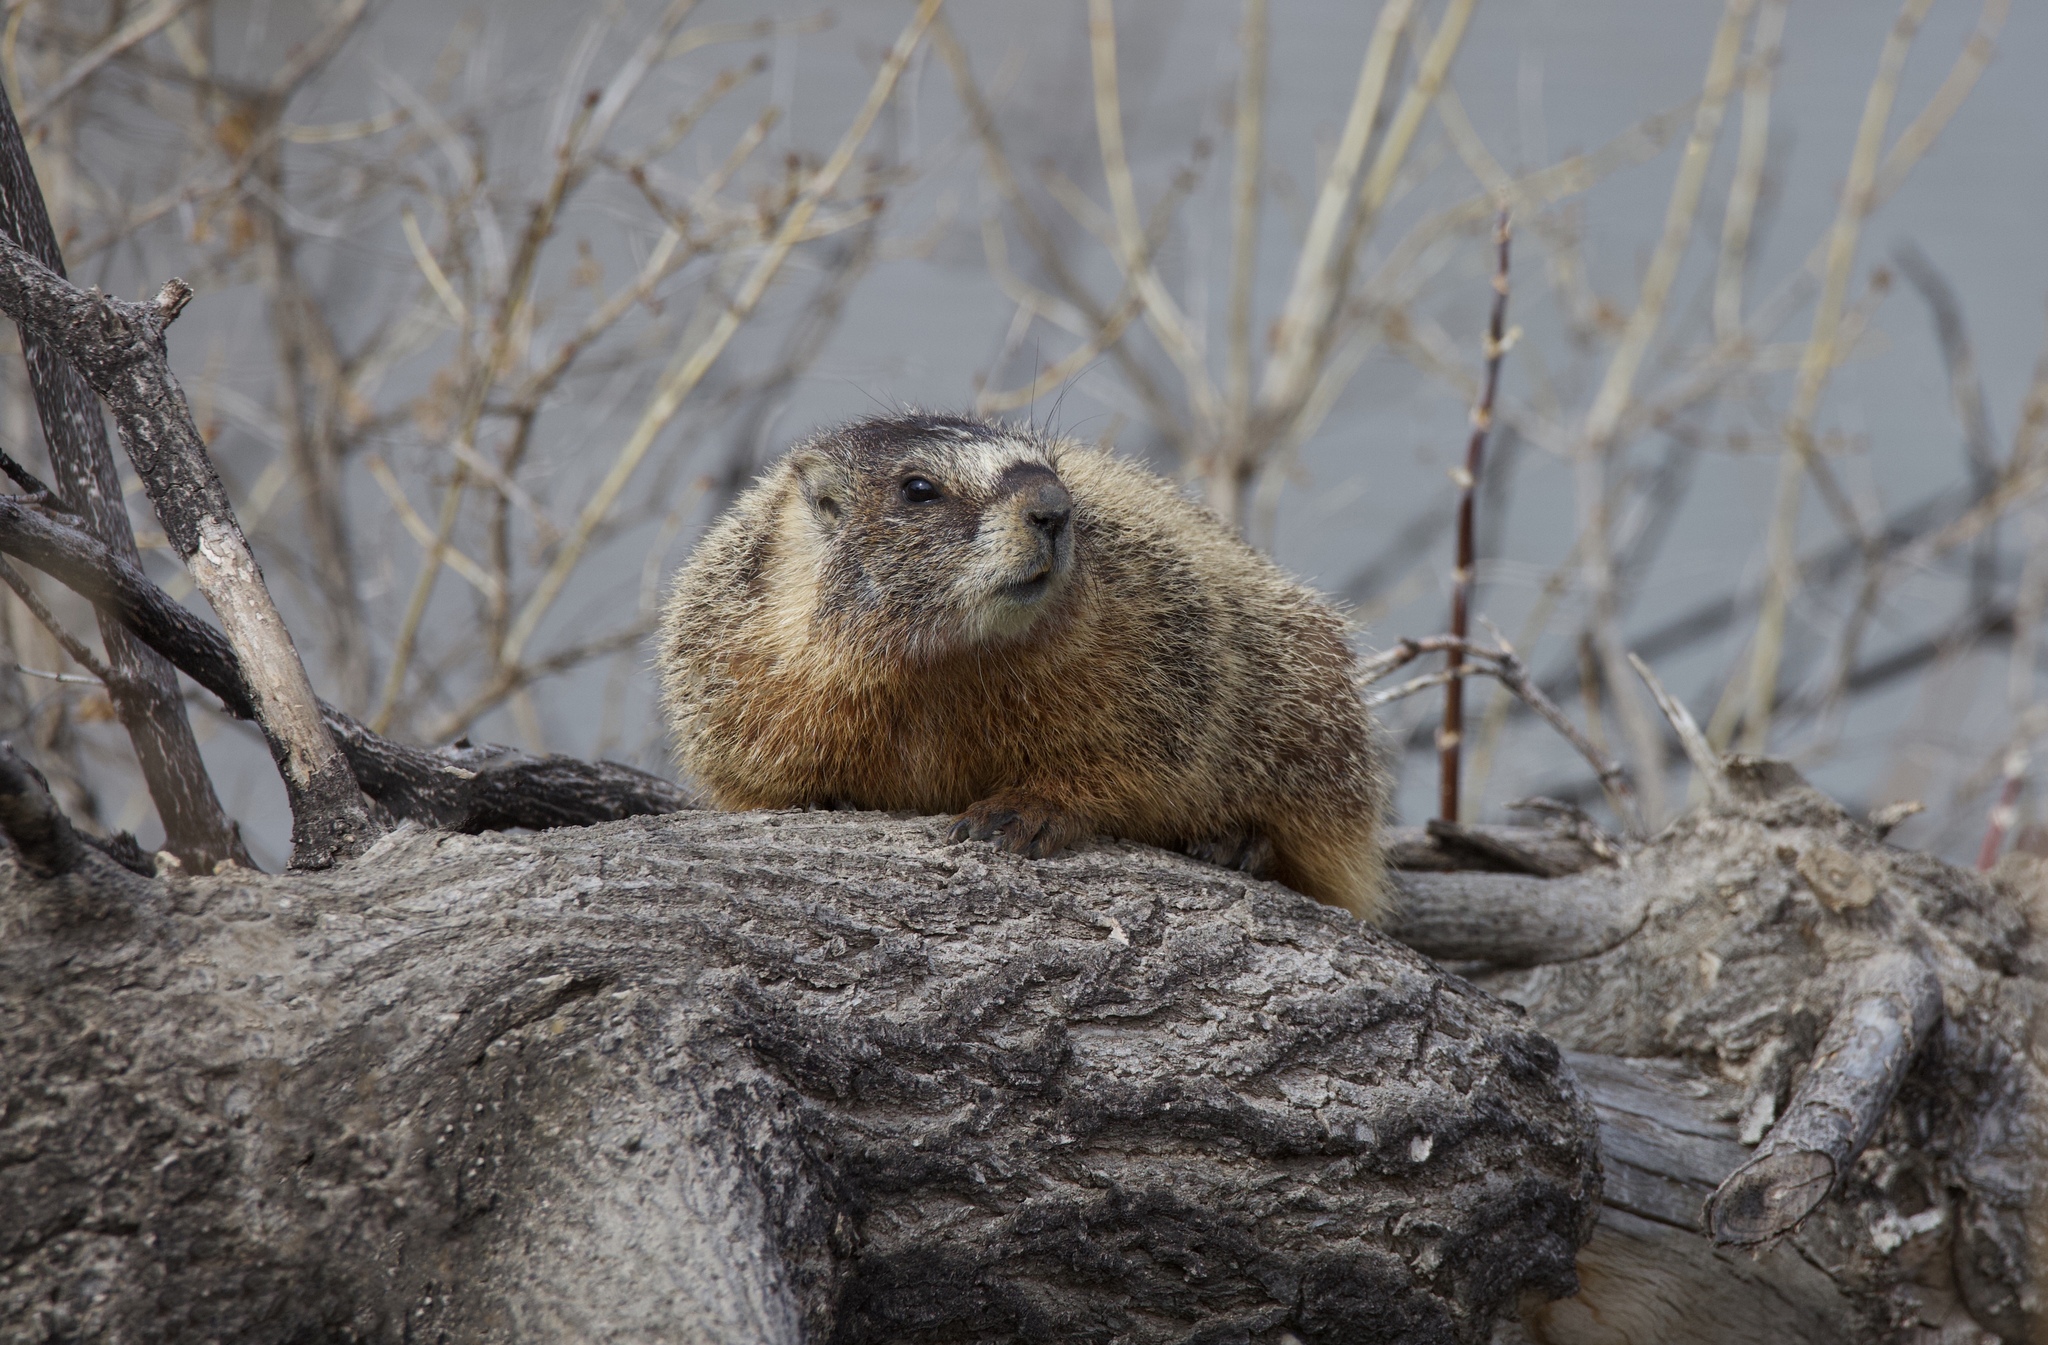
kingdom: Animalia
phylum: Chordata
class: Mammalia
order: Rodentia
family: Sciuridae
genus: Marmota
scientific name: Marmota flaviventris
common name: Yellow-bellied marmot
